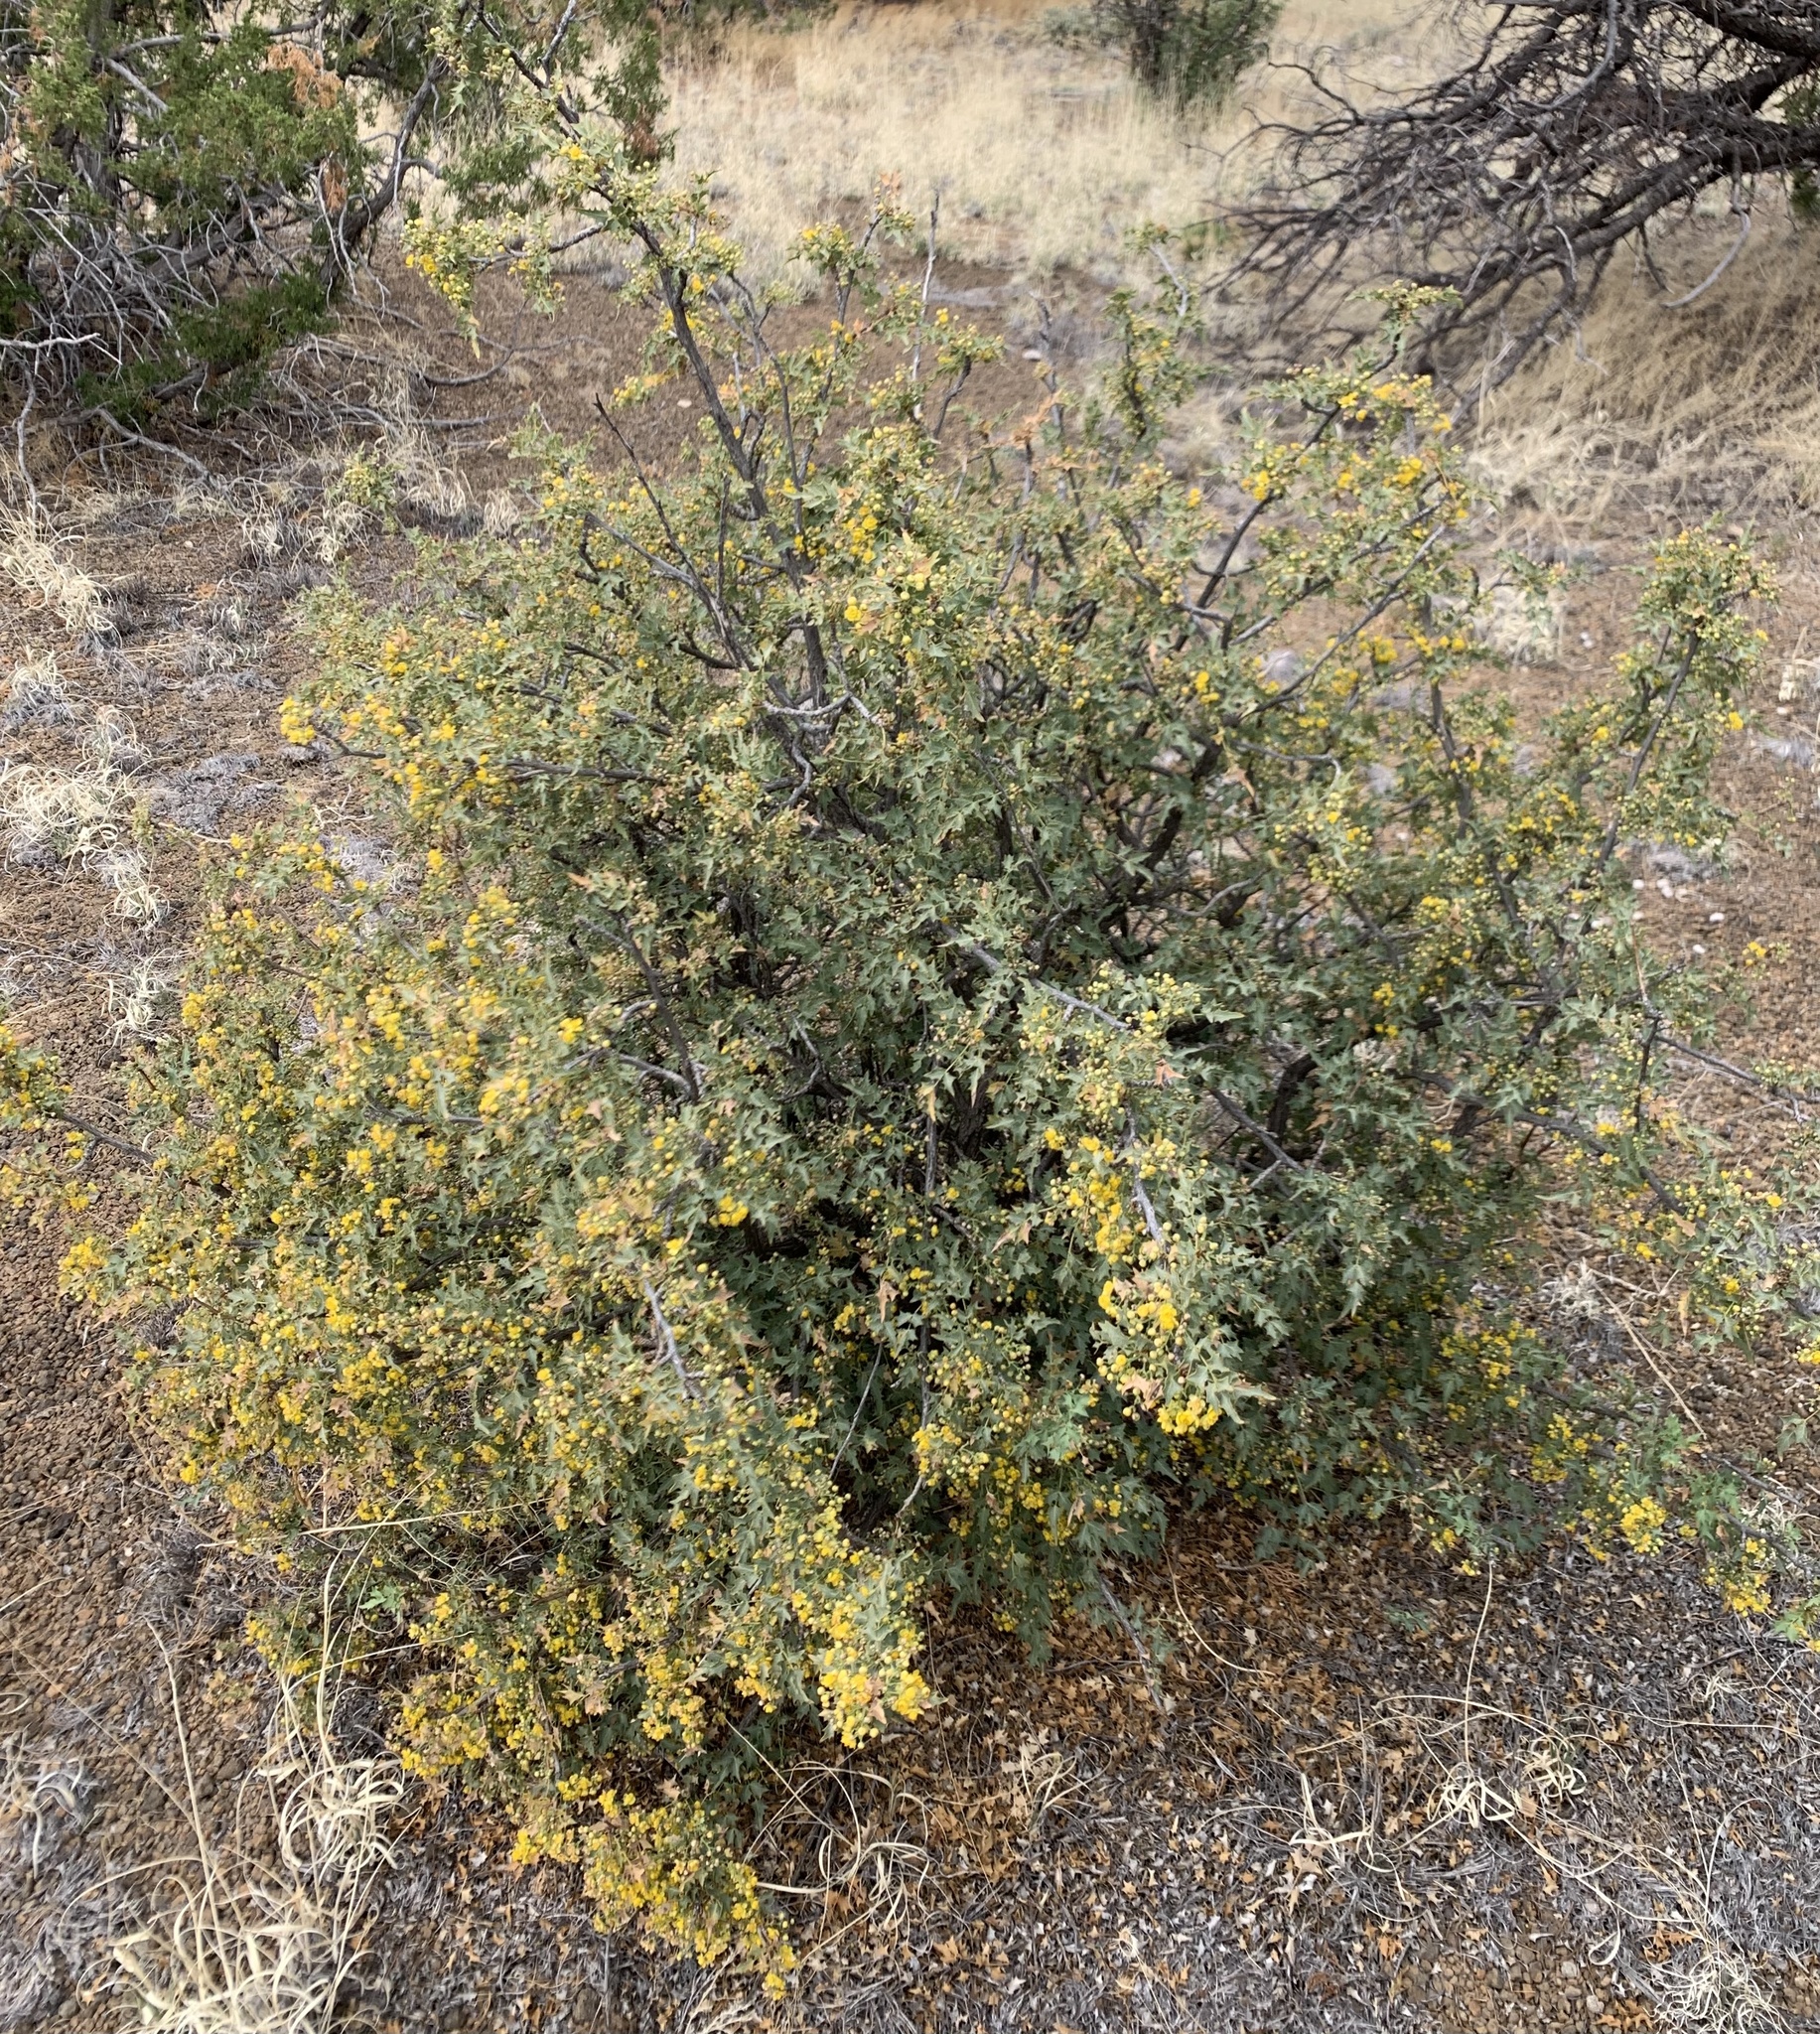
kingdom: Plantae
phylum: Tracheophyta
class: Magnoliopsida
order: Ranunculales
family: Berberidaceae
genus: Alloberberis
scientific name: Alloberberis fremontii
